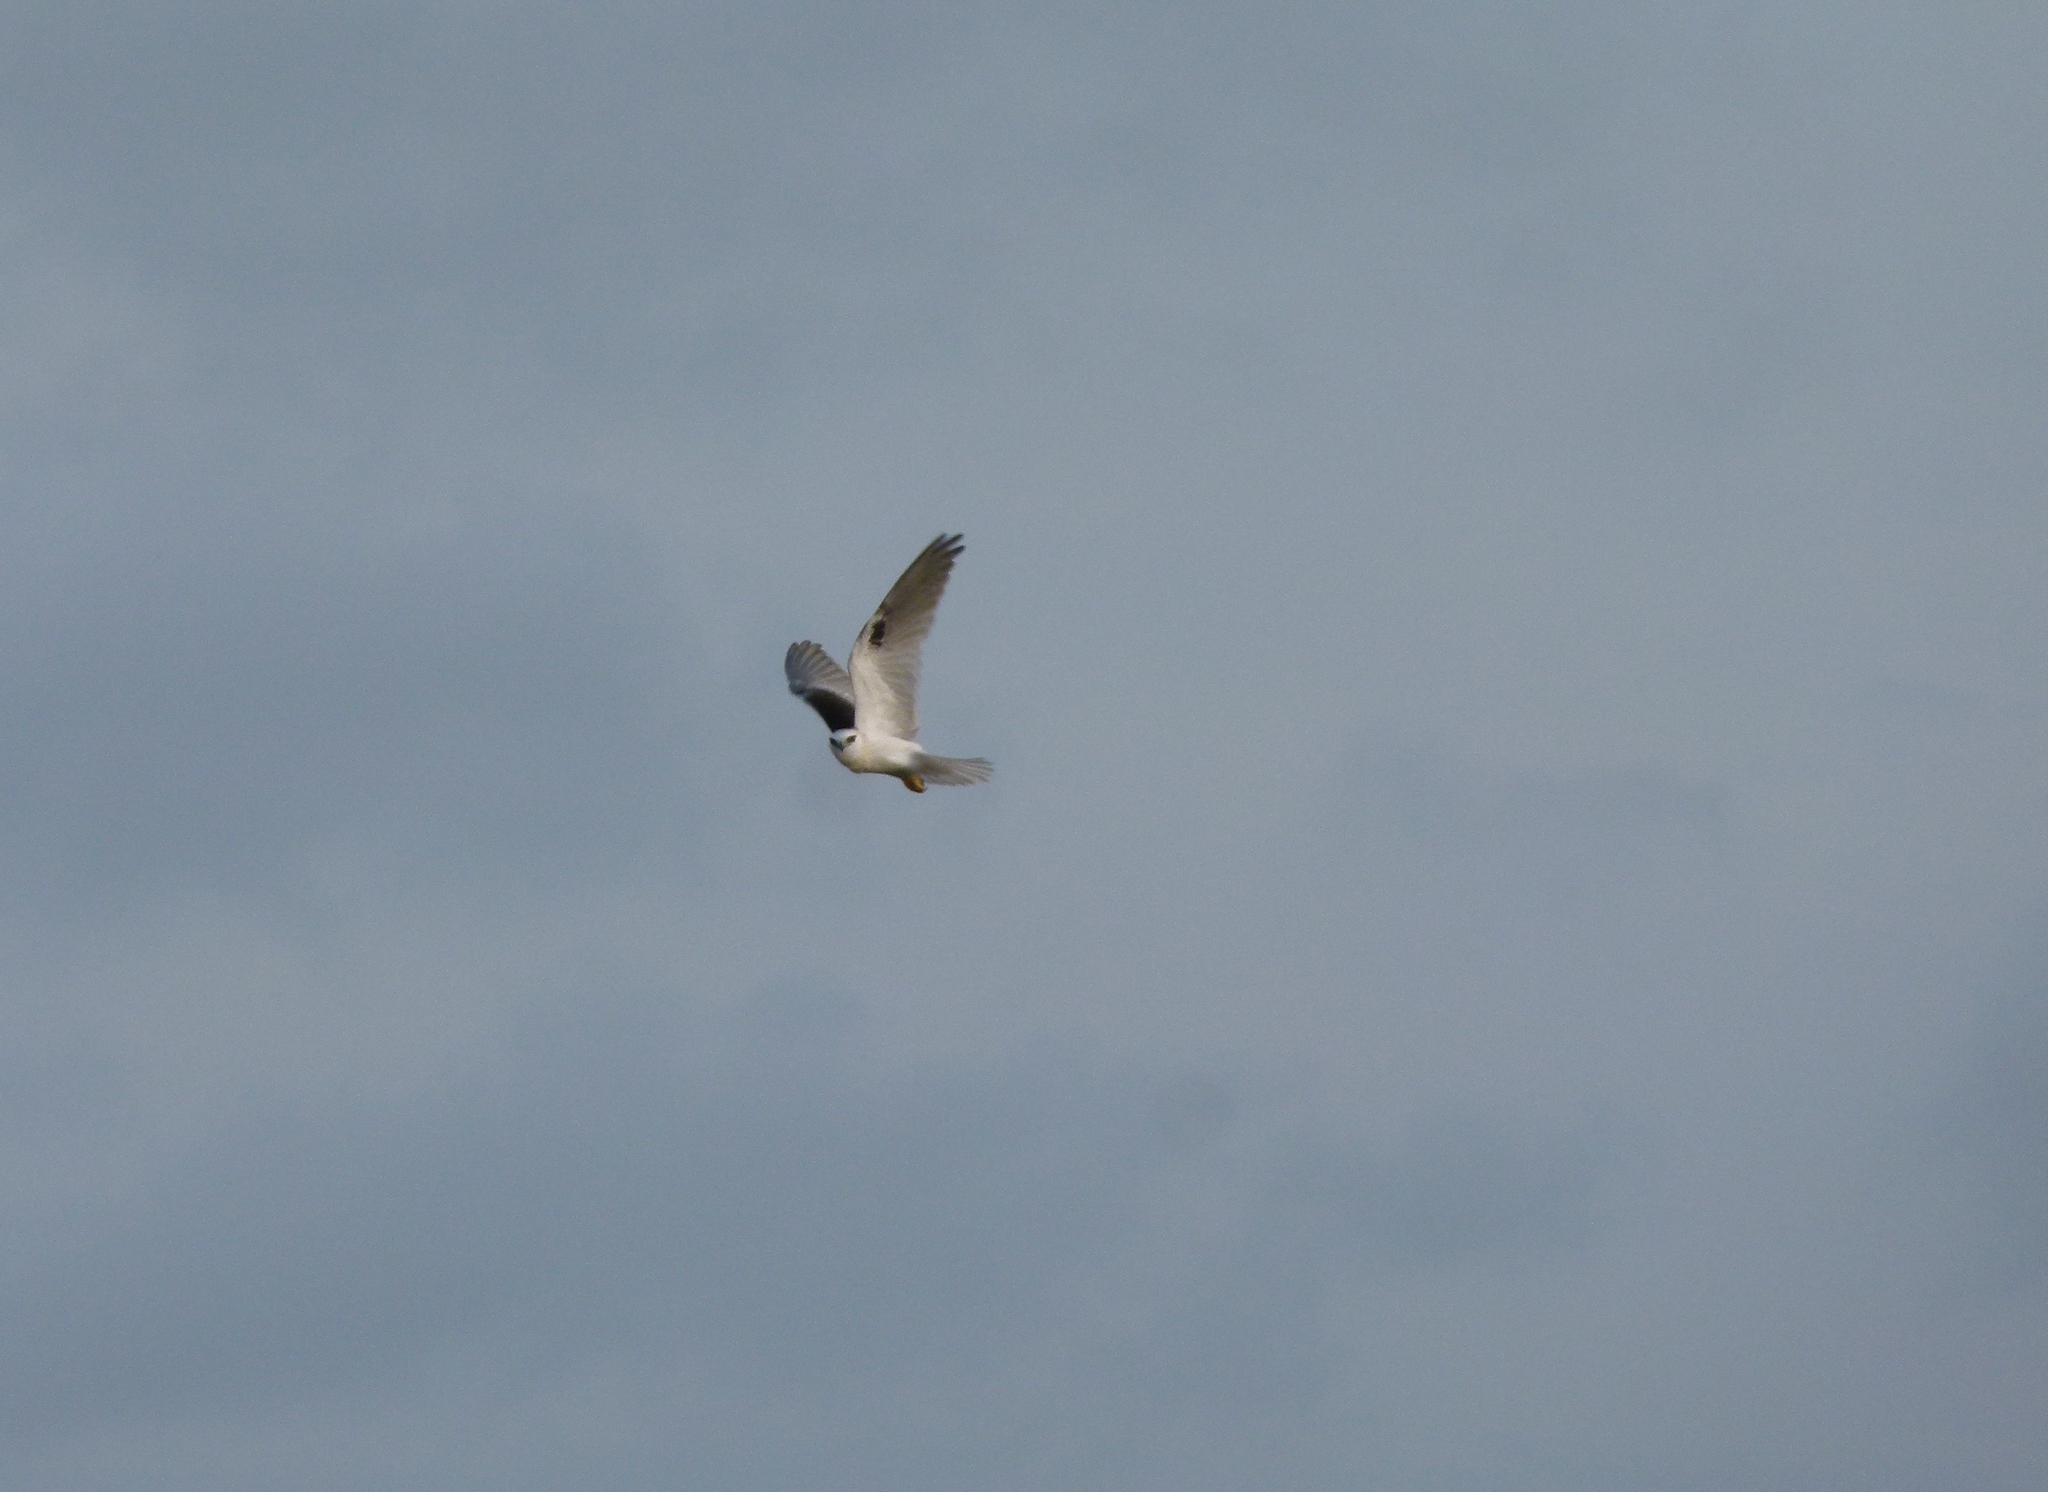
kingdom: Animalia
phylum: Chordata
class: Aves
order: Accipitriformes
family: Accipitridae
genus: Elanus
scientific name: Elanus axillaris
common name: Black-shouldered kite
